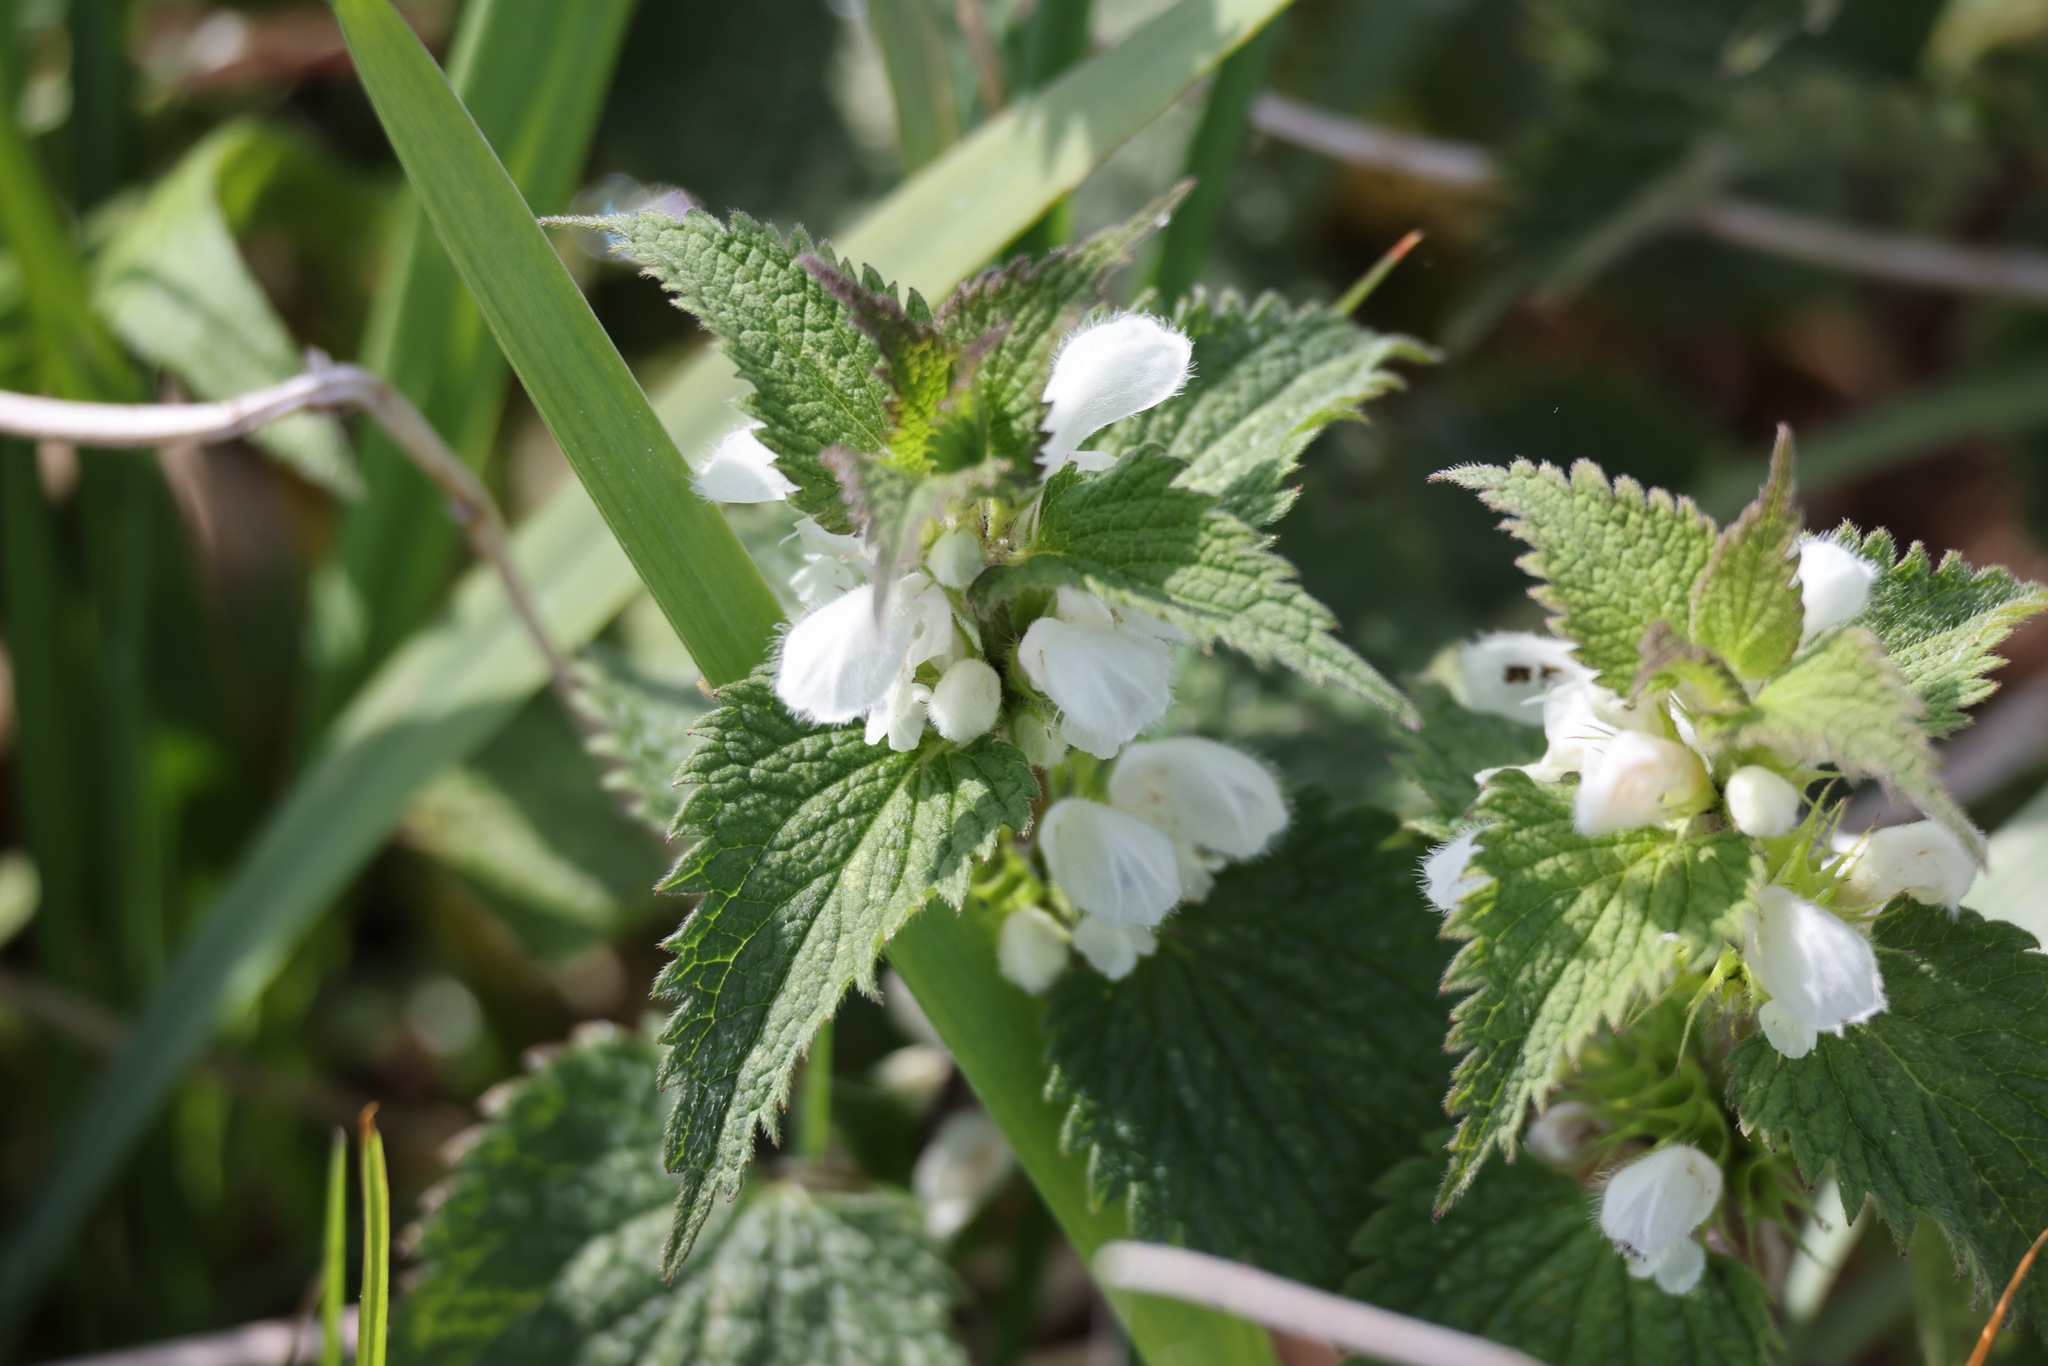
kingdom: Plantae
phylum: Tracheophyta
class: Magnoliopsida
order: Lamiales
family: Lamiaceae
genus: Lamium
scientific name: Lamium album
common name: White dead-nettle
